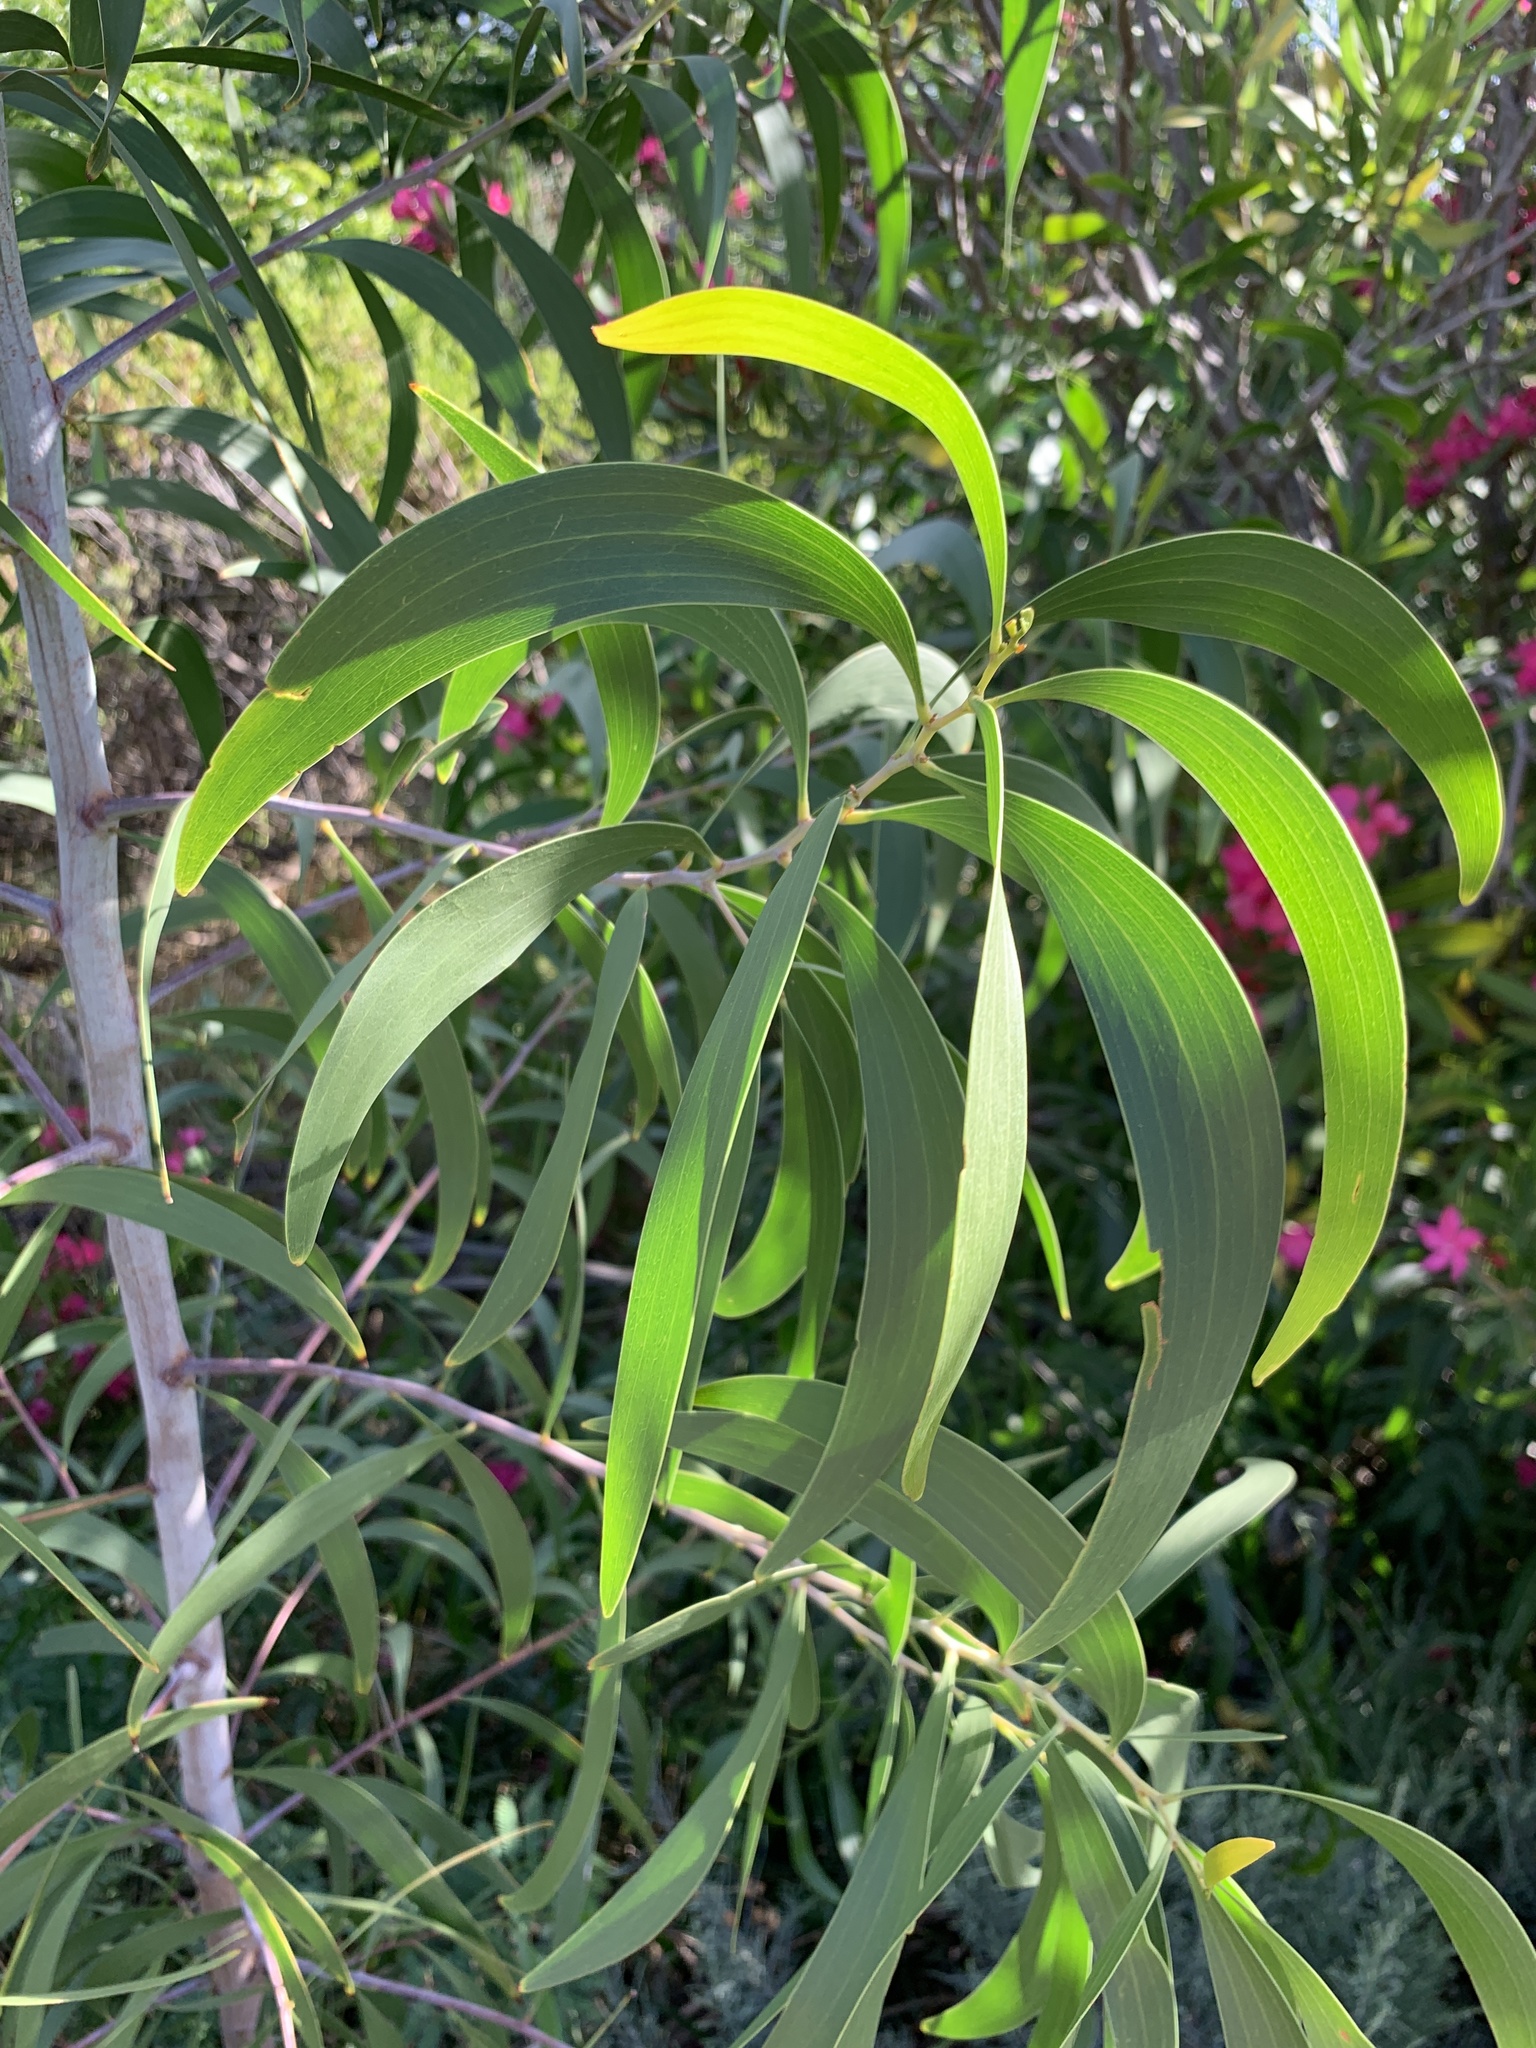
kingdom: Plantae
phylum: Tracheophyta
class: Magnoliopsida
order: Fabales
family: Fabaceae
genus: Acacia
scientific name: Acacia implexa
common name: Black wattle
